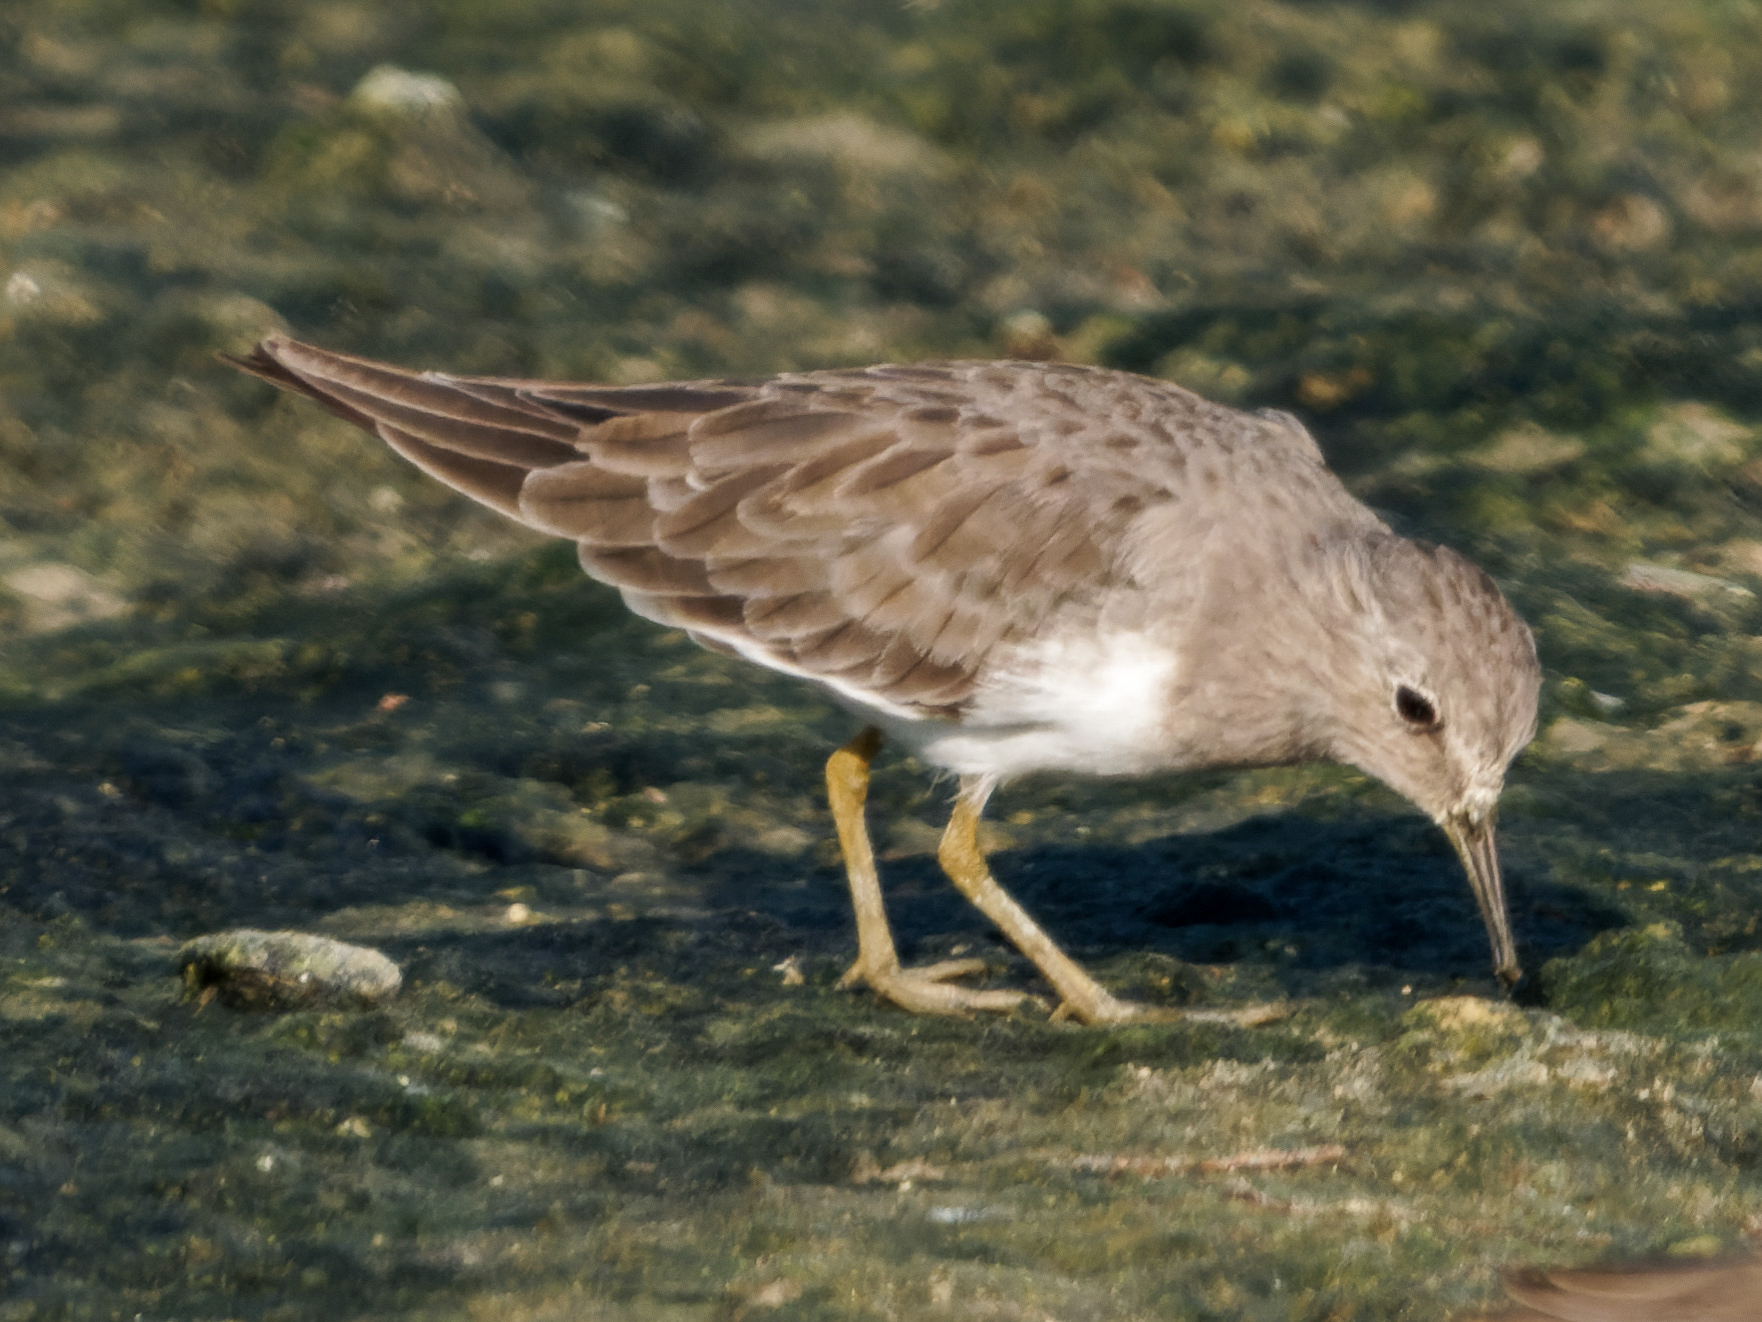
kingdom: Animalia
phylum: Chordata
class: Aves
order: Charadriiformes
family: Scolopacidae
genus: Calidris
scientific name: Calidris temminckii
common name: Temminck's stint
